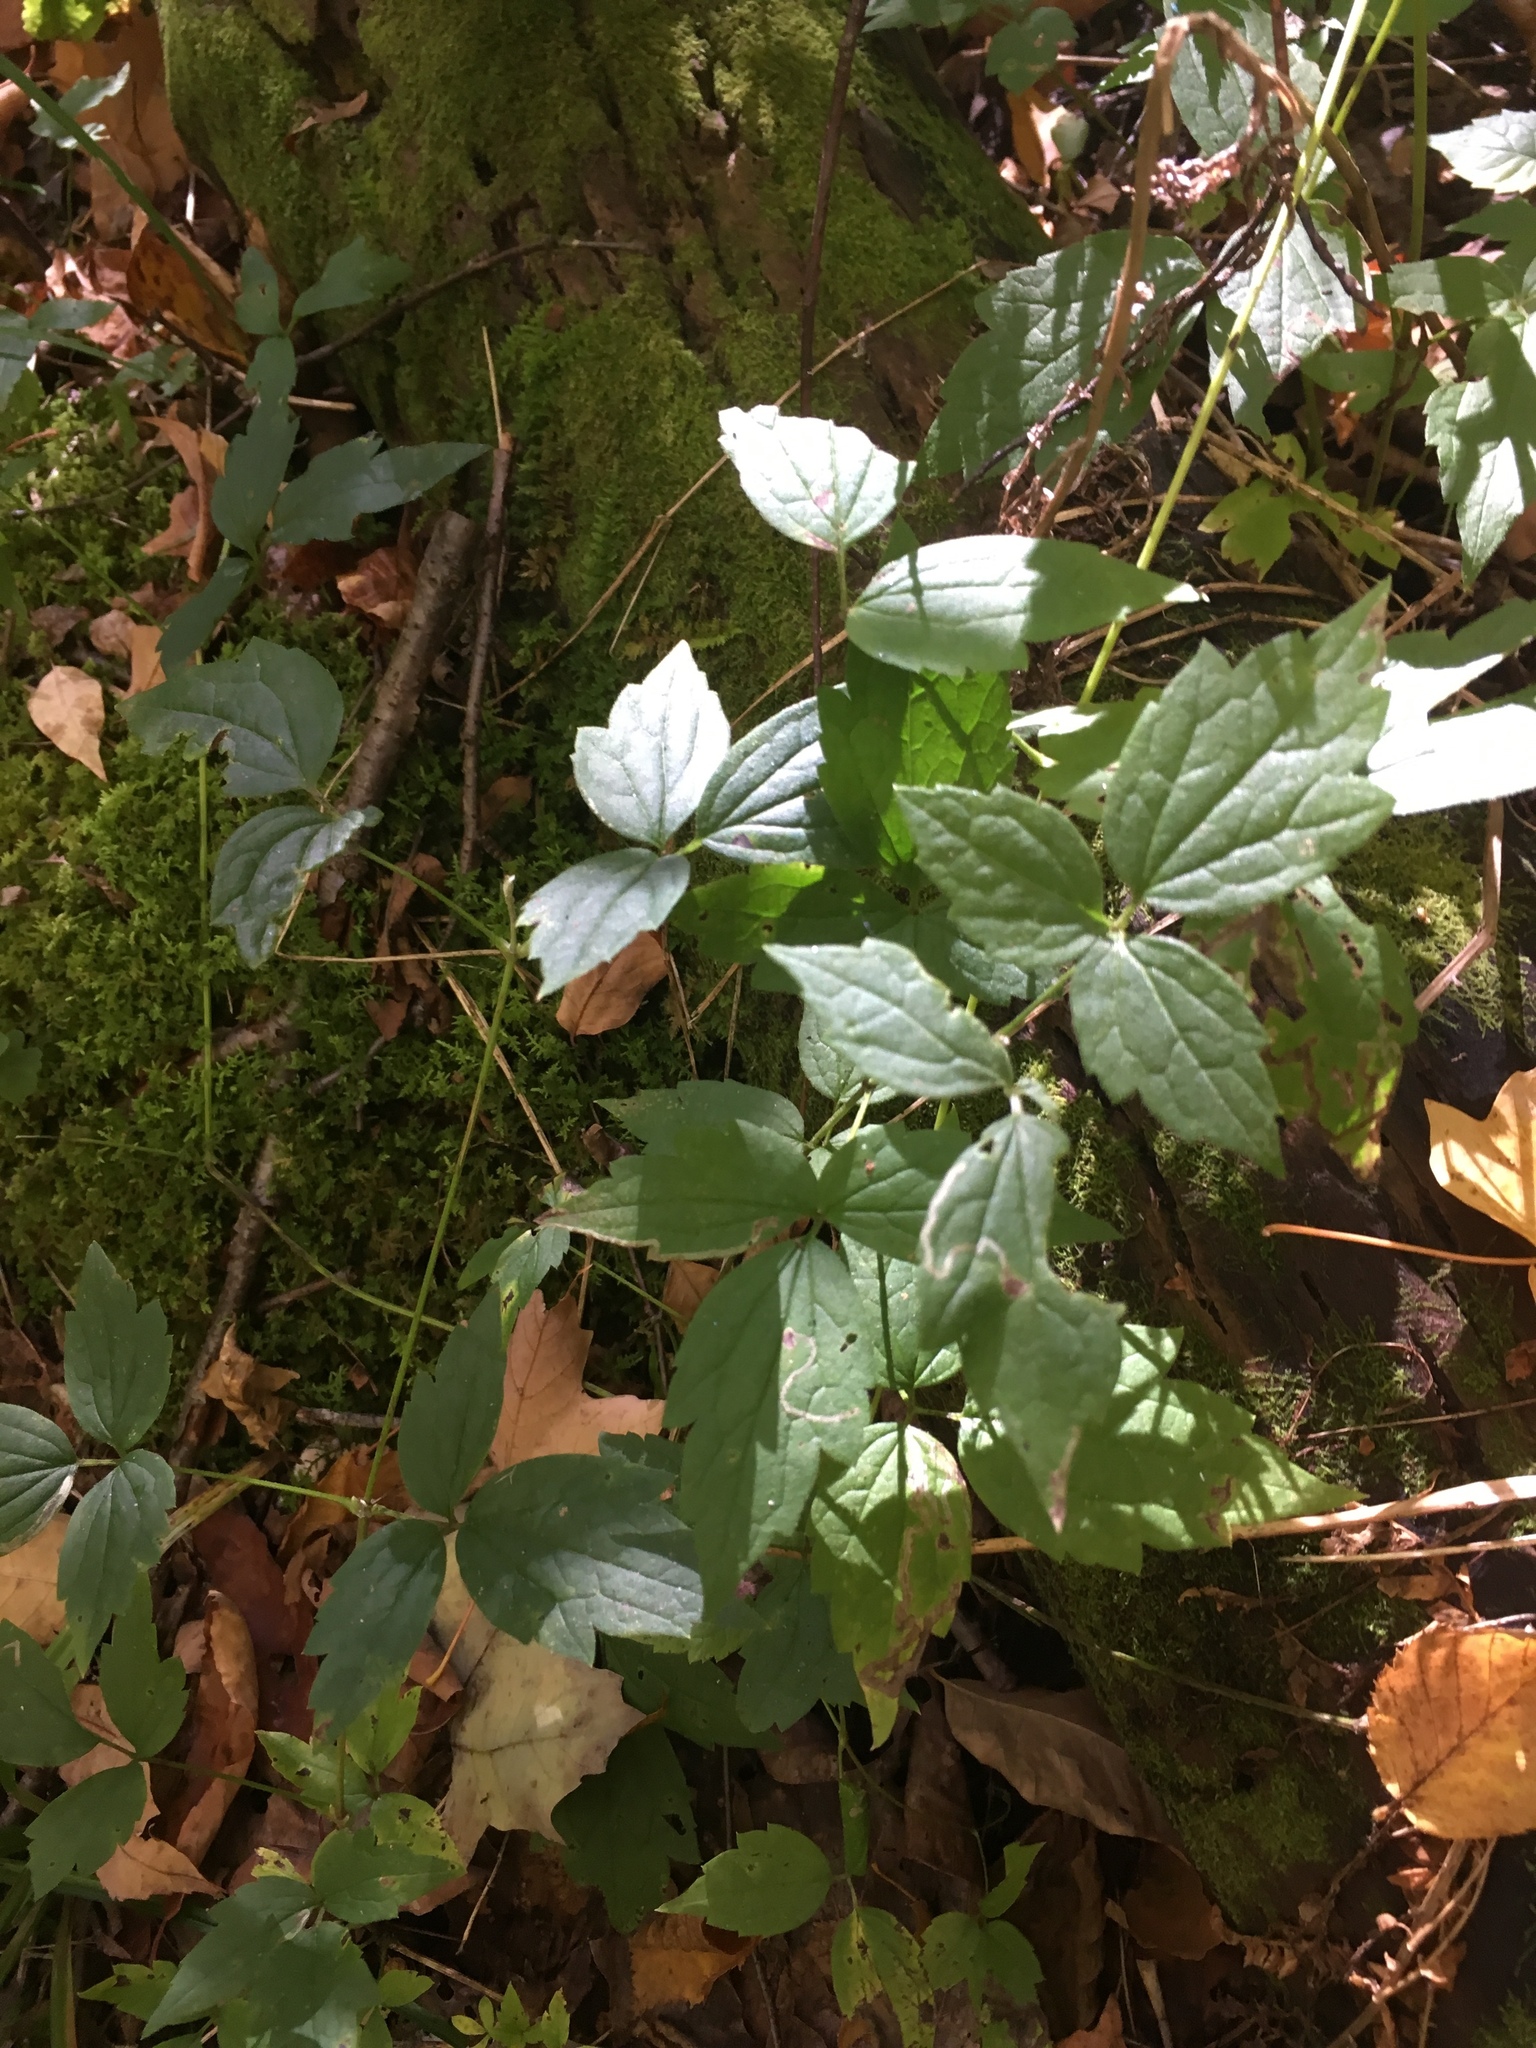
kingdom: Plantae
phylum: Tracheophyta
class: Magnoliopsida
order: Ranunculales
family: Ranunculaceae
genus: Clematis
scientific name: Clematis virginiana
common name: Virgin's-bower
